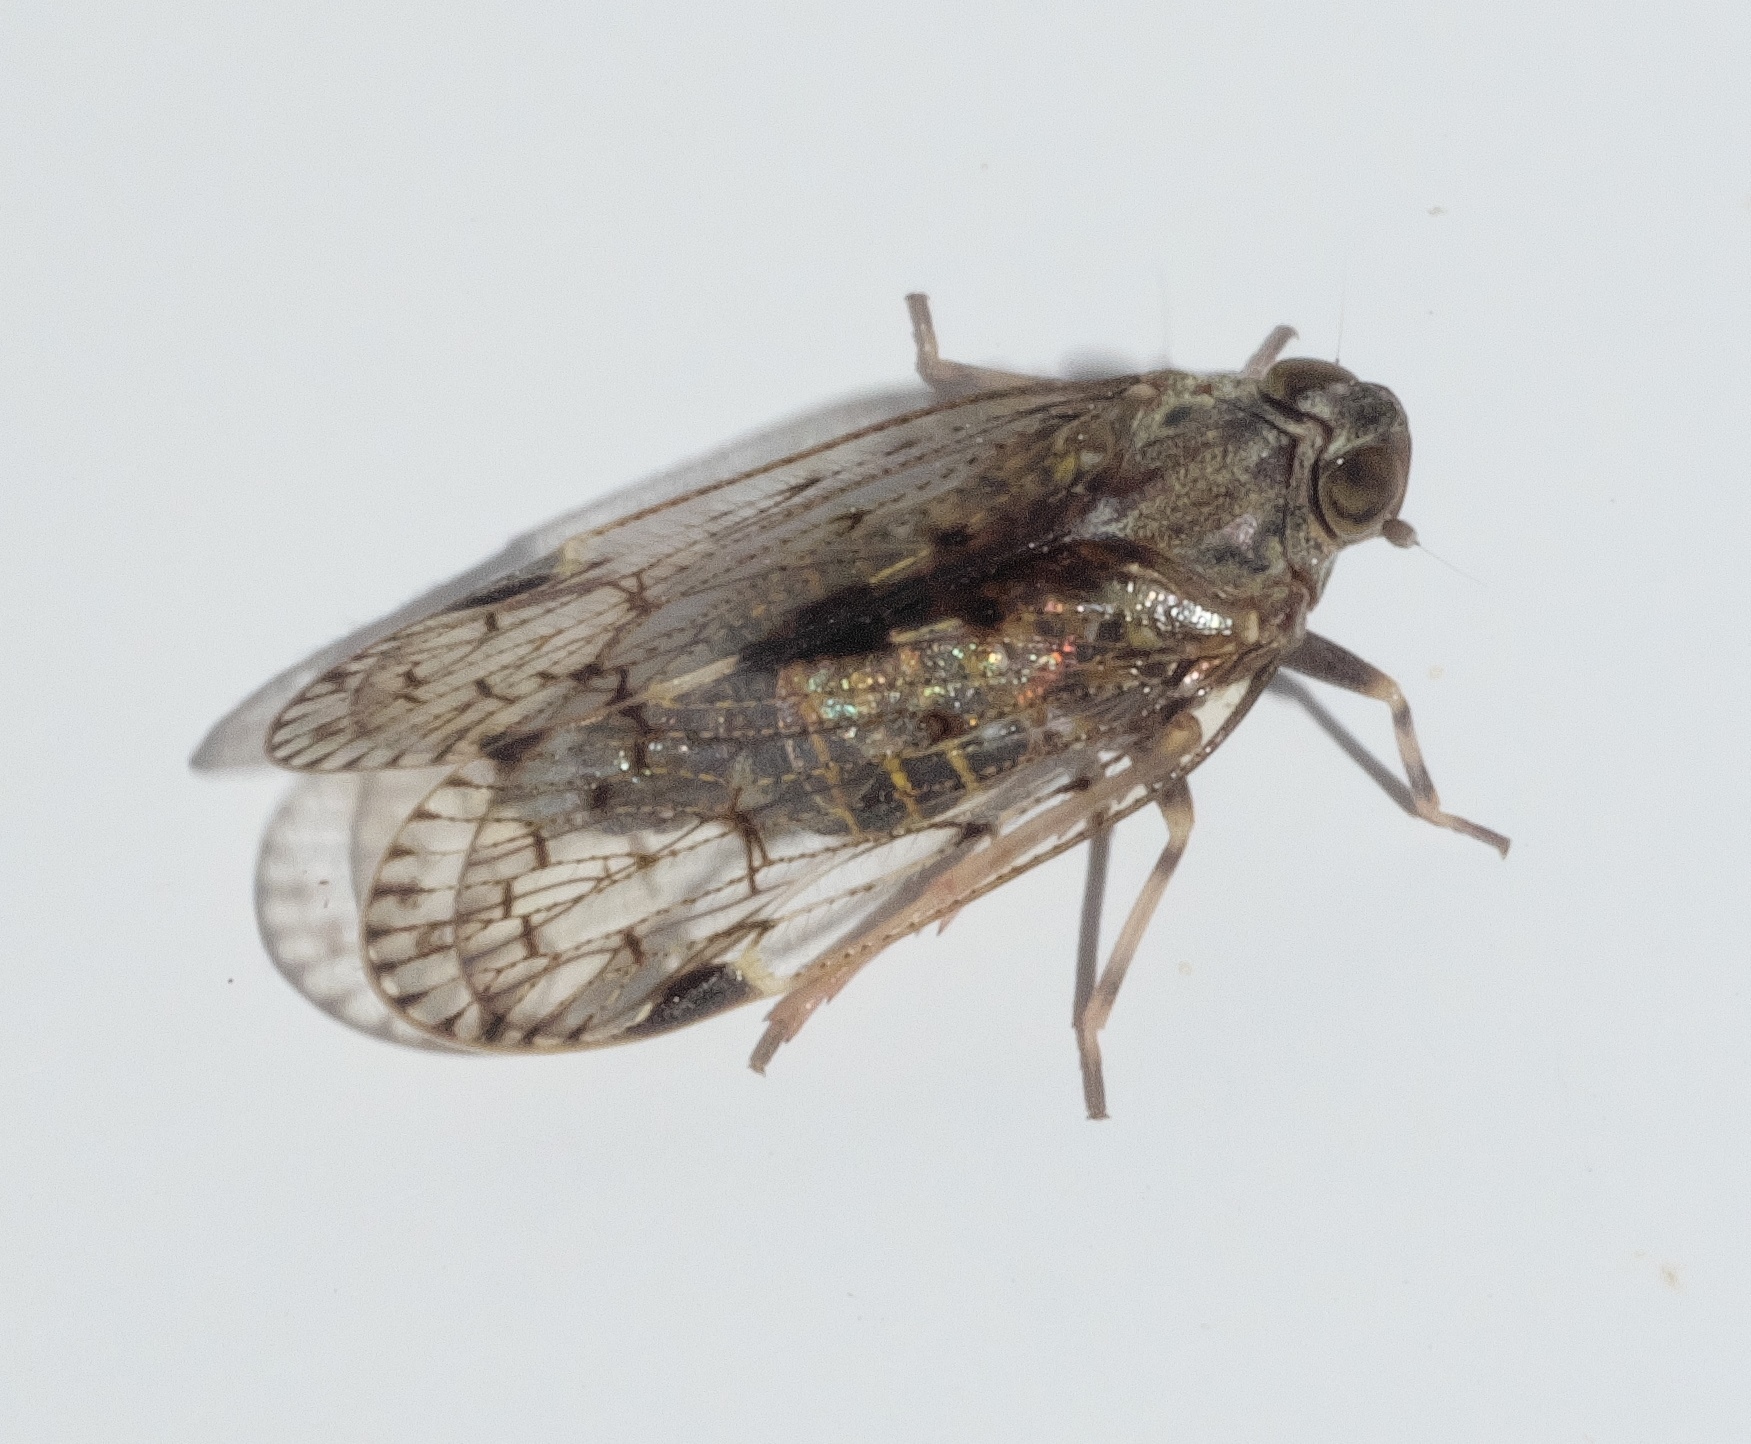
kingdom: Animalia
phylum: Arthropoda
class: Insecta
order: Hemiptera
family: Cixiidae
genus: Melanoliarus
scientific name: Melanoliarus placitus
